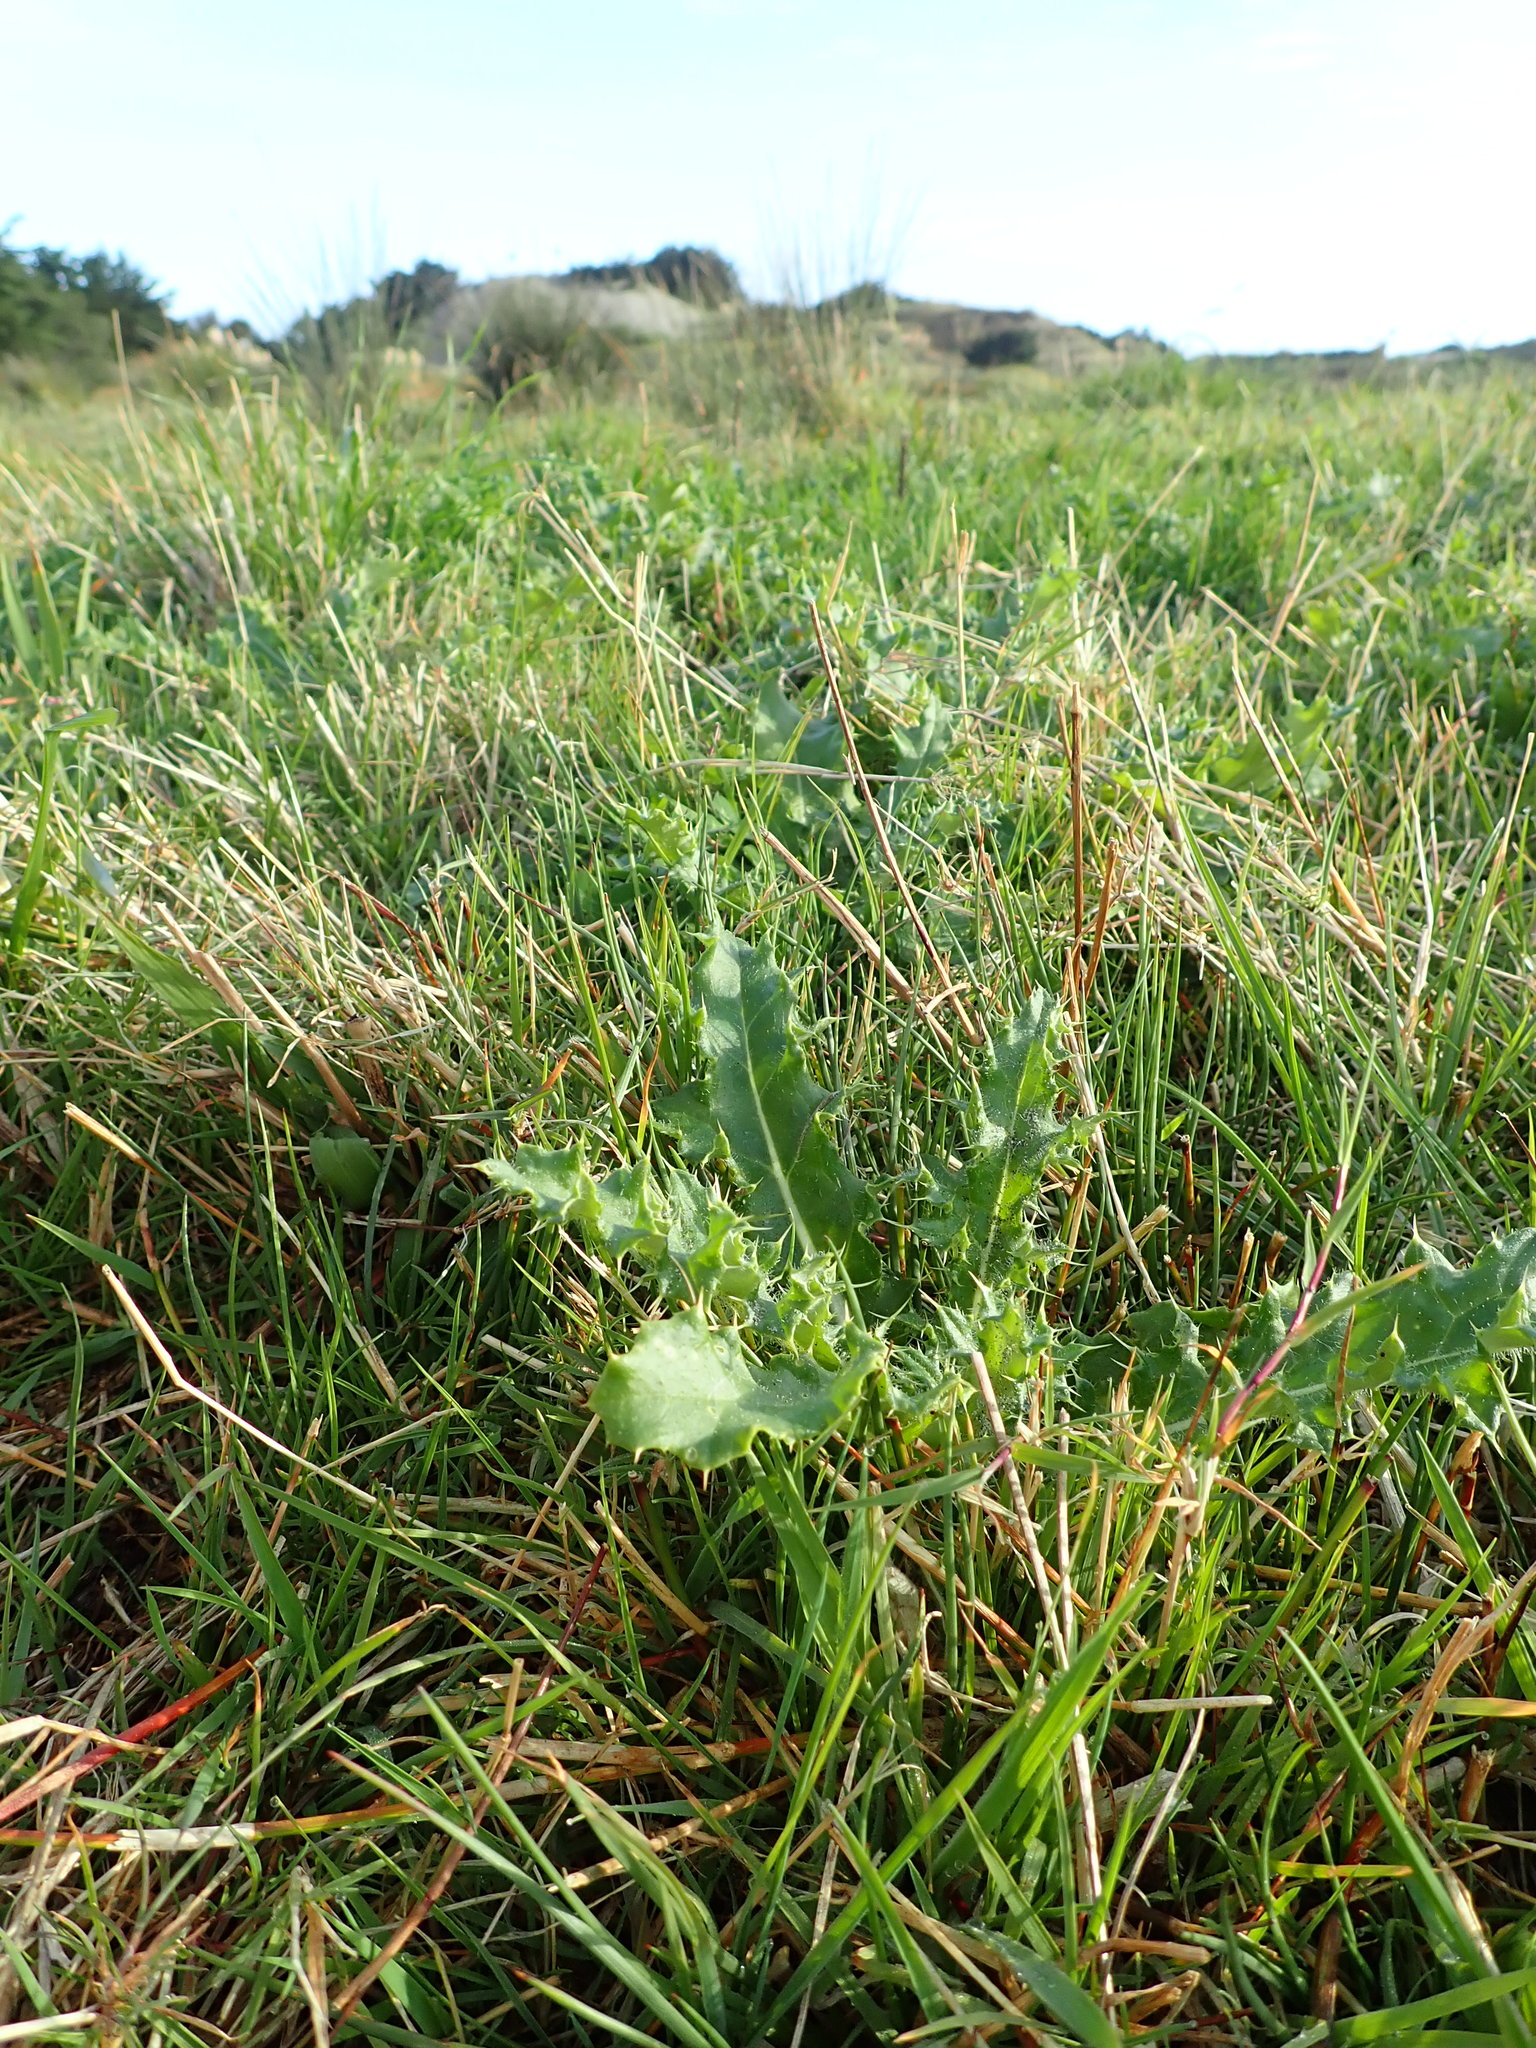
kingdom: Plantae
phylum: Tracheophyta
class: Magnoliopsida
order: Asterales
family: Asteraceae
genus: Cirsium
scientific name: Cirsium arvense
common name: Creeping thistle
